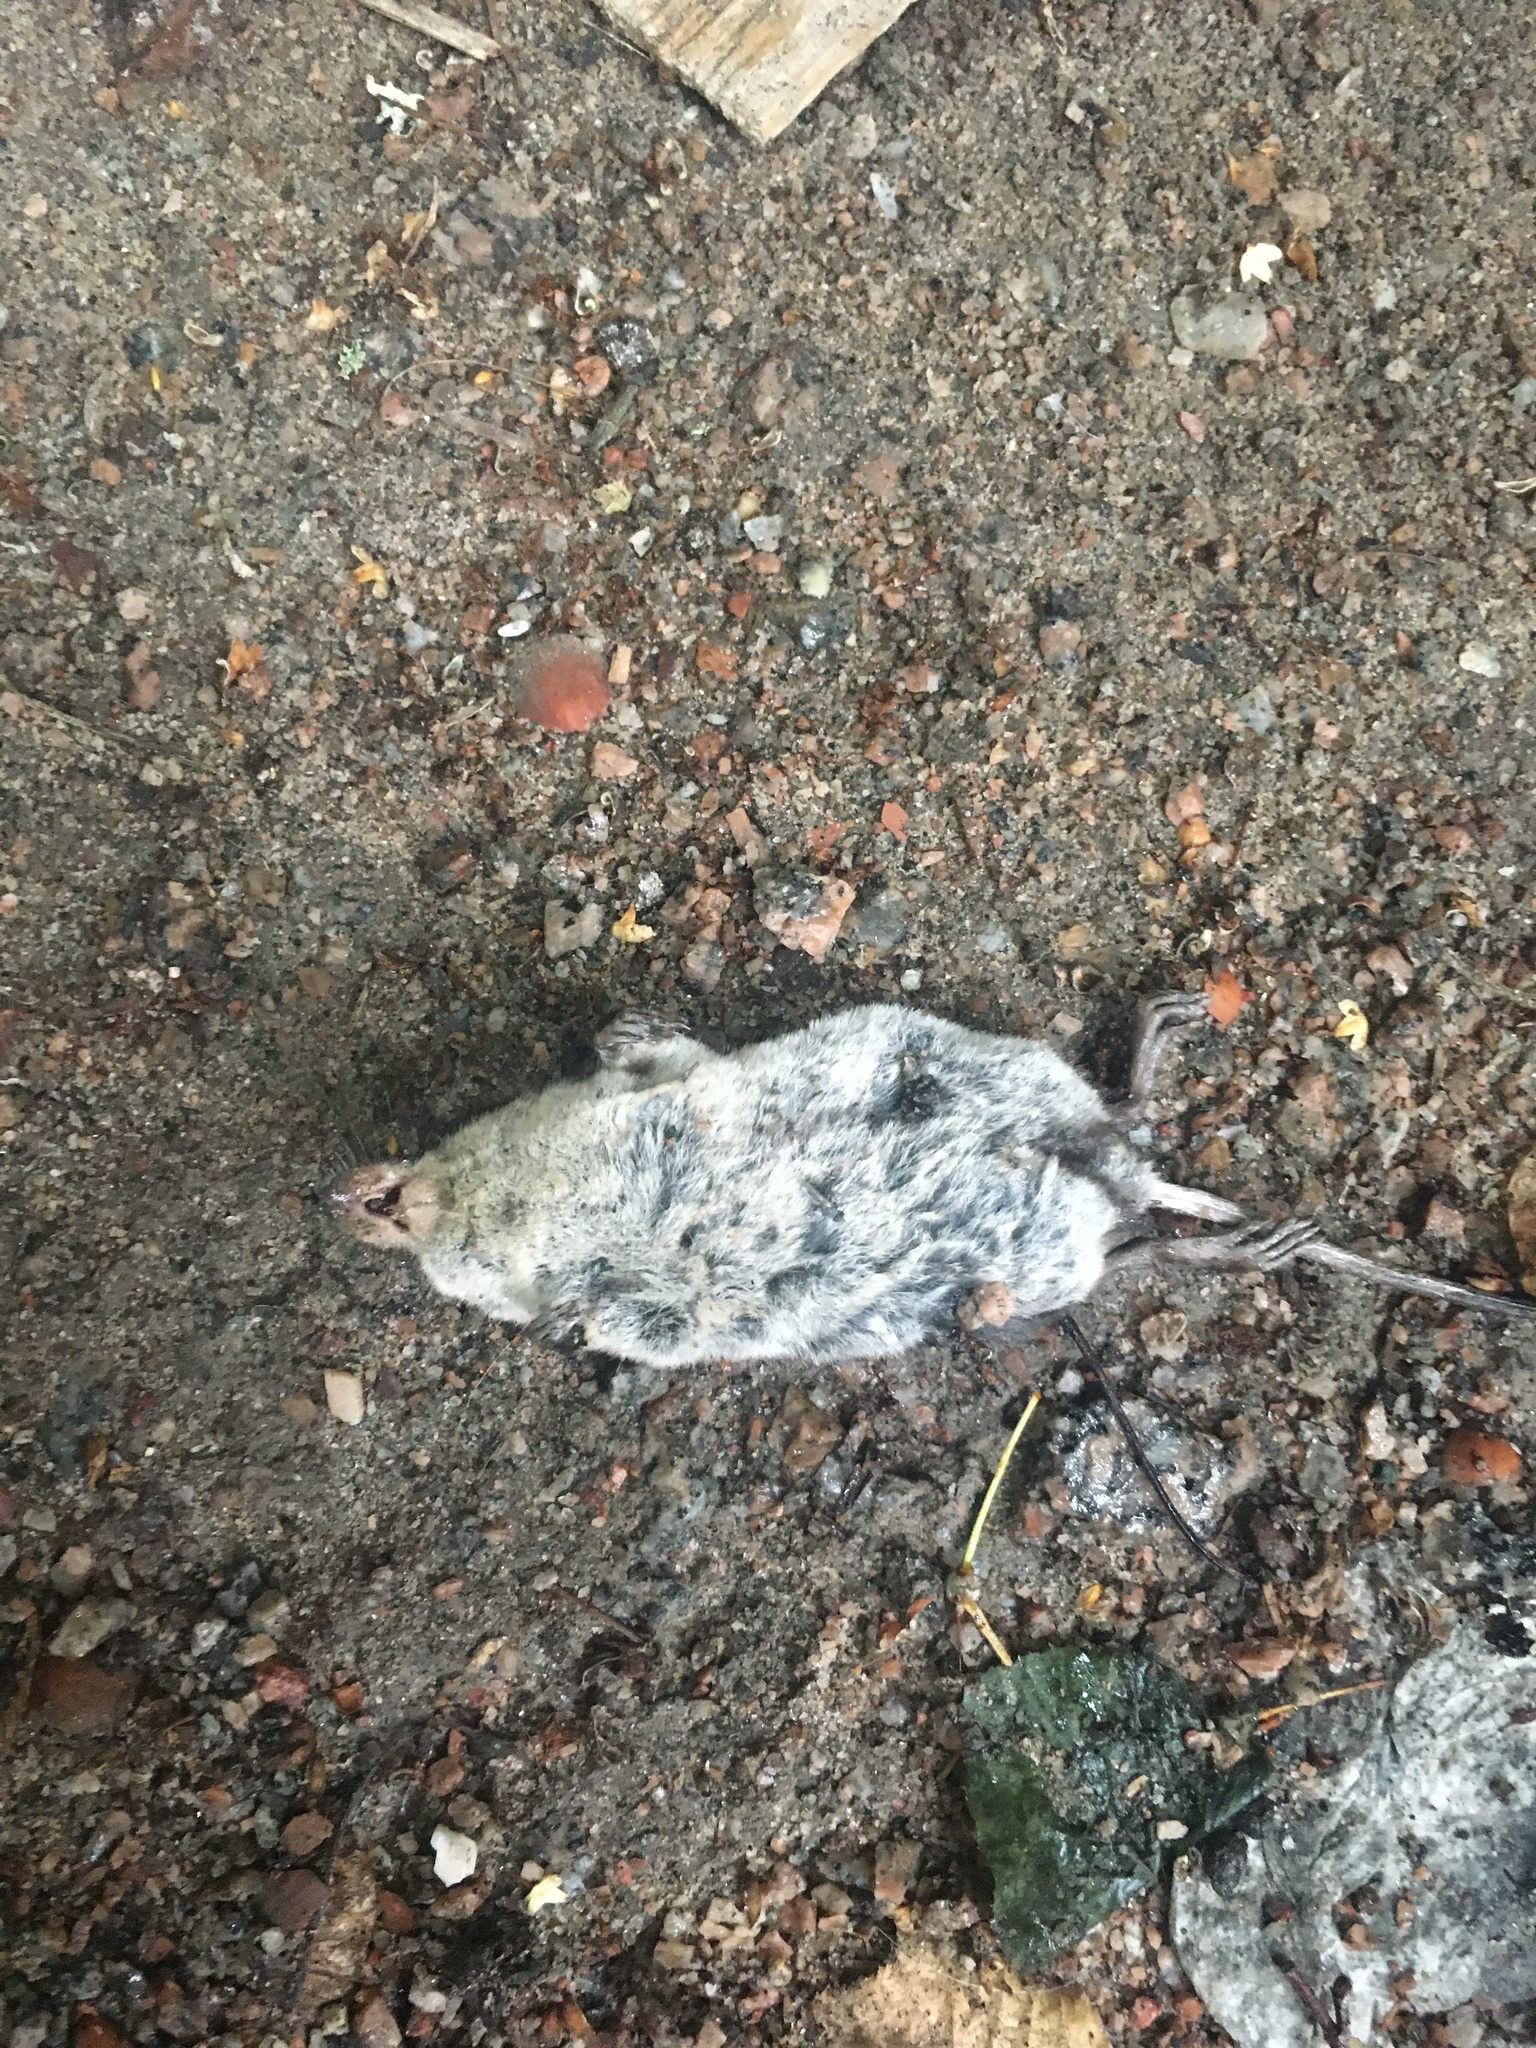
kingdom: Animalia
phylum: Chordata
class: Mammalia
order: Soricomorpha
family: Soricidae
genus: Neomys
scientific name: Neomys fodiens
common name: Eurasian water shrew
